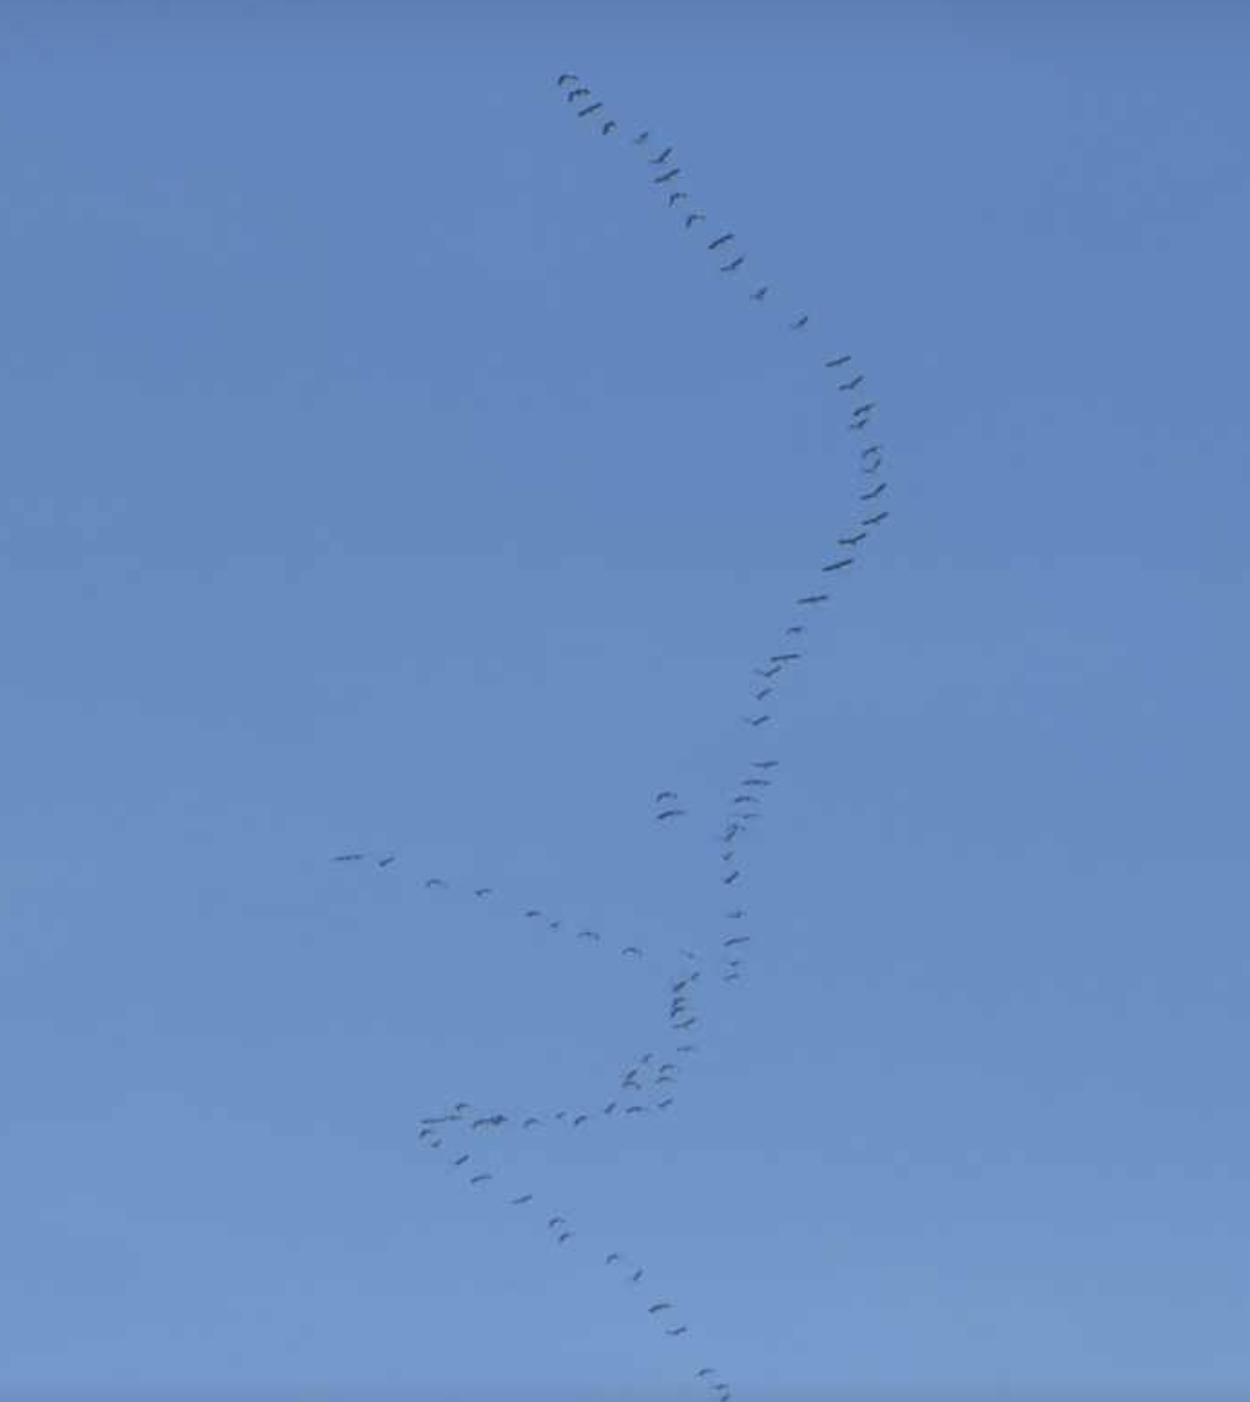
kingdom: Animalia
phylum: Chordata
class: Aves
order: Gruiformes
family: Gruidae
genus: Grus
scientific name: Grus grus
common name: Common crane
